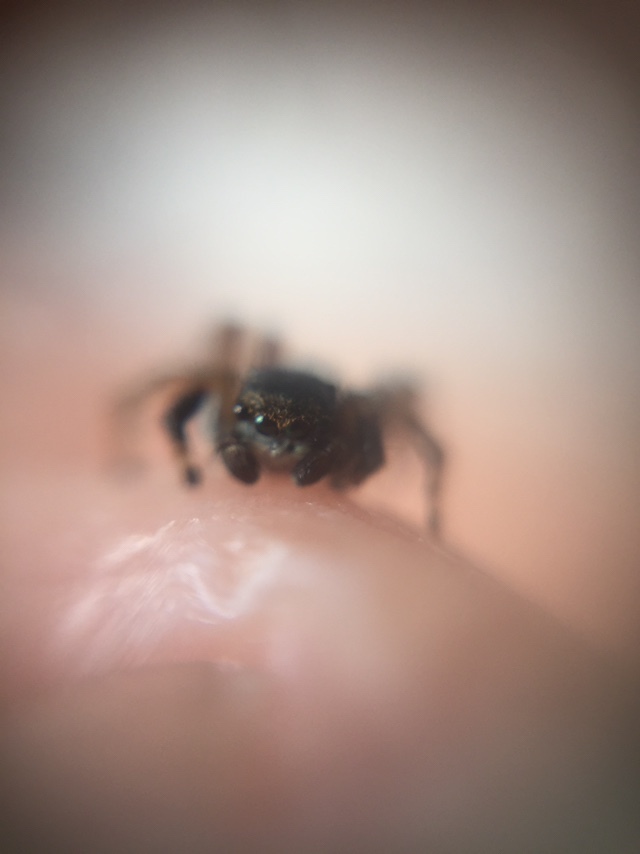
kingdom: Animalia
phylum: Arthropoda
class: Arachnida
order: Araneae
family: Salticidae
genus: Phlegra
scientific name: Phlegra prasanna
